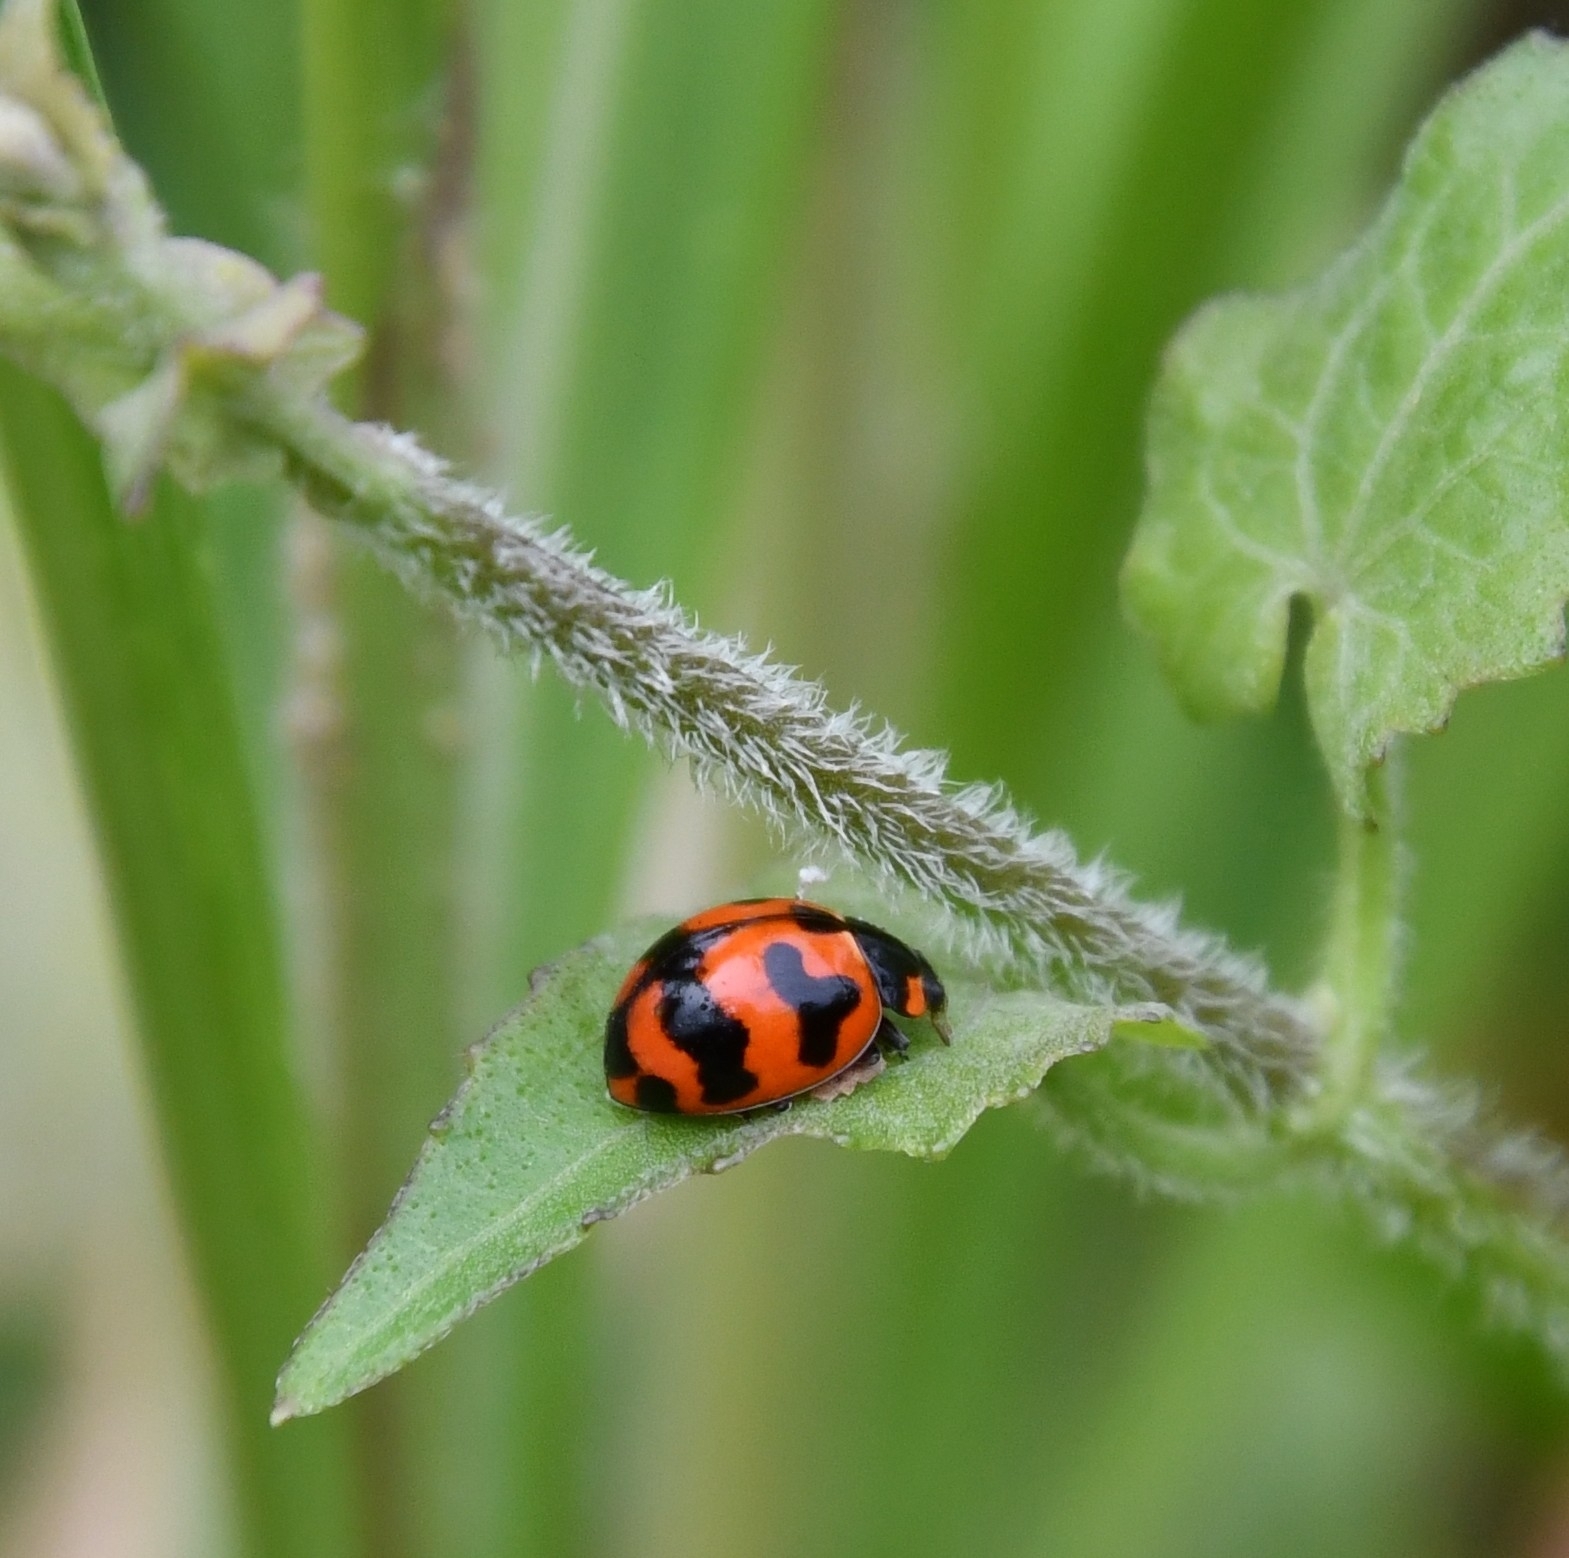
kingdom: Animalia
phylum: Arthropoda
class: Insecta
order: Coleoptera
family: Coccinellidae
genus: Coccinella
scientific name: Coccinella transversalis
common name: Transverse lady beetle
